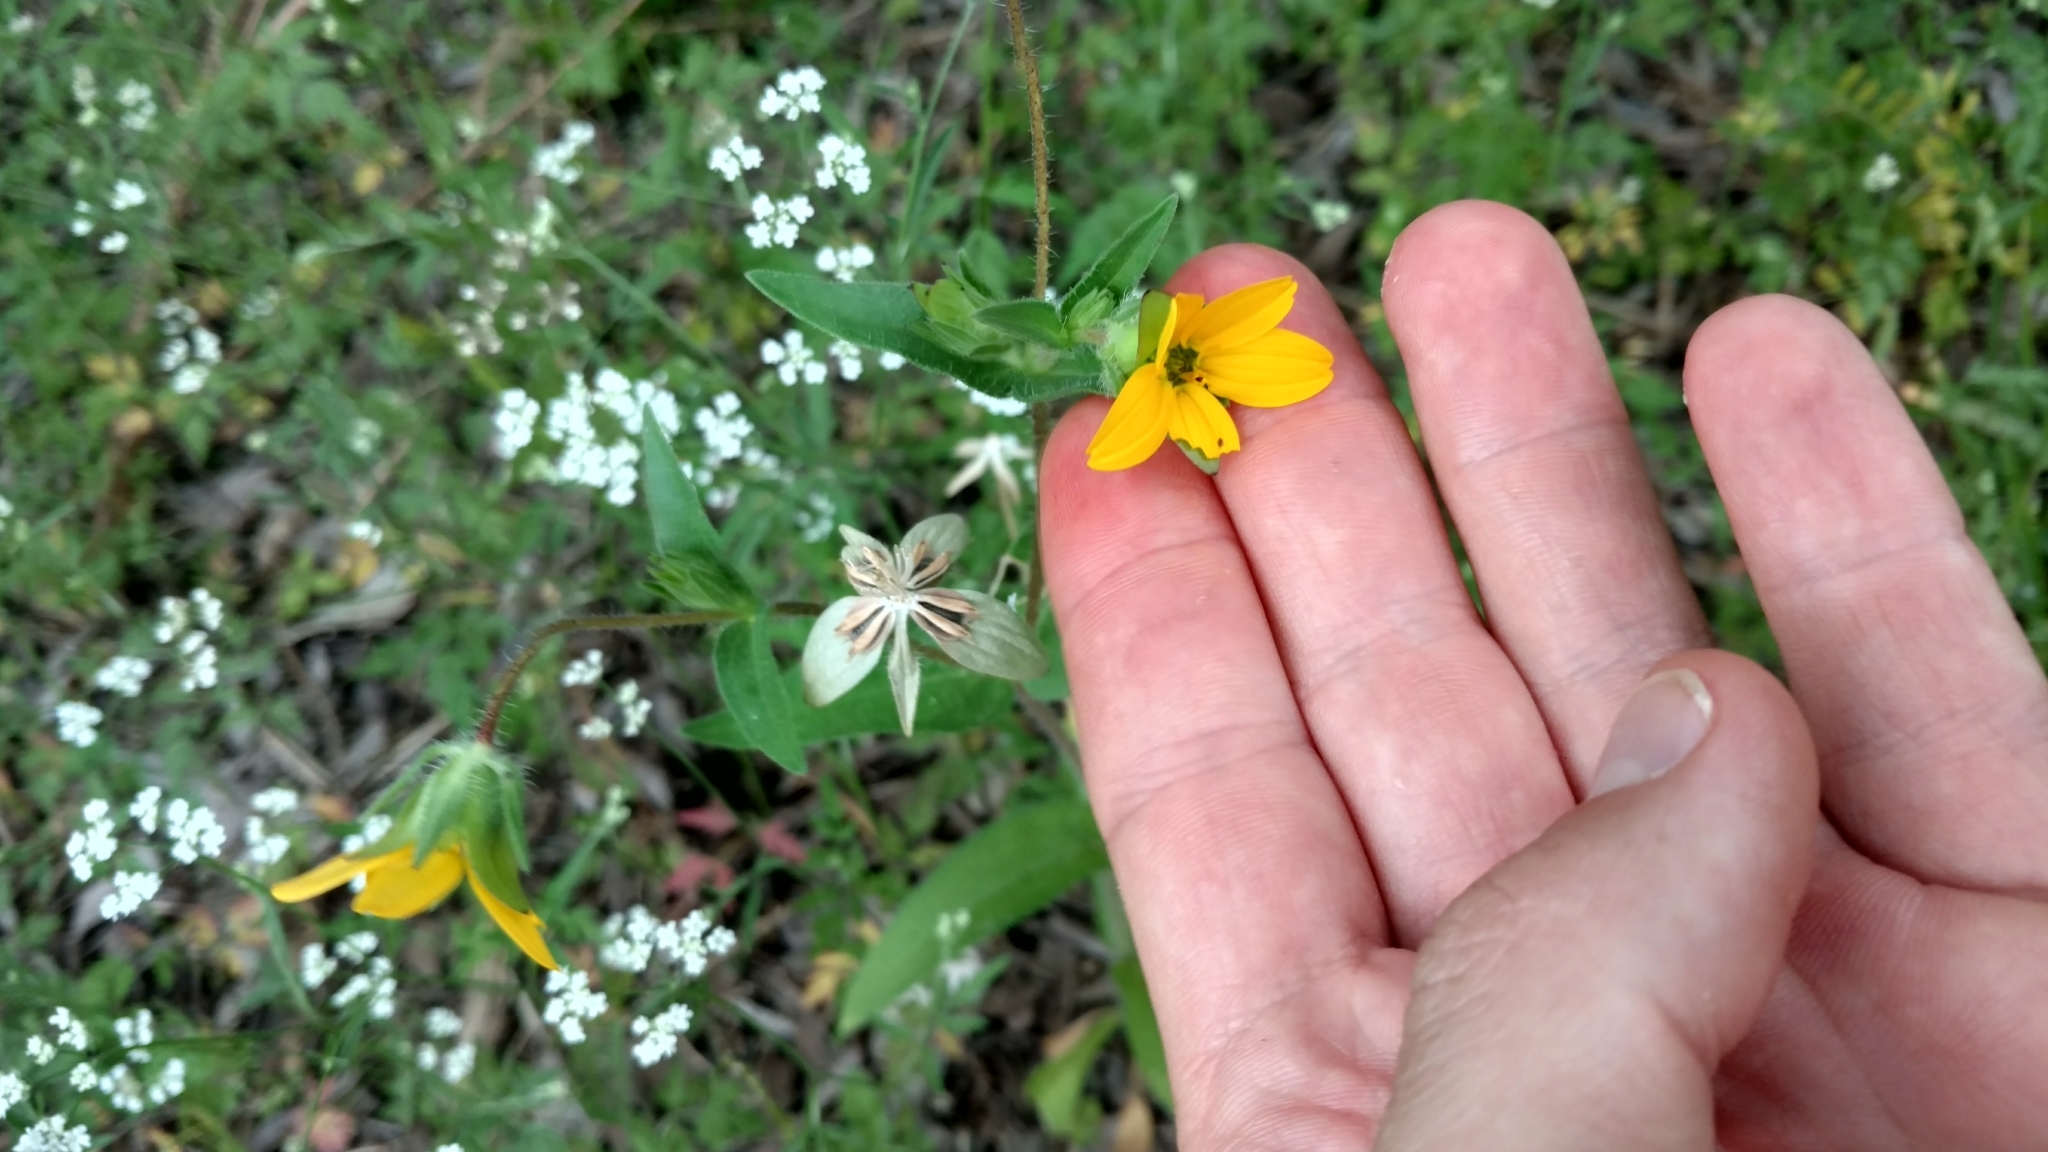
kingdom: Plantae
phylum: Tracheophyta
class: Magnoliopsida
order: Asterales
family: Asteraceae
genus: Lindheimera
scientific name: Lindheimera texana
